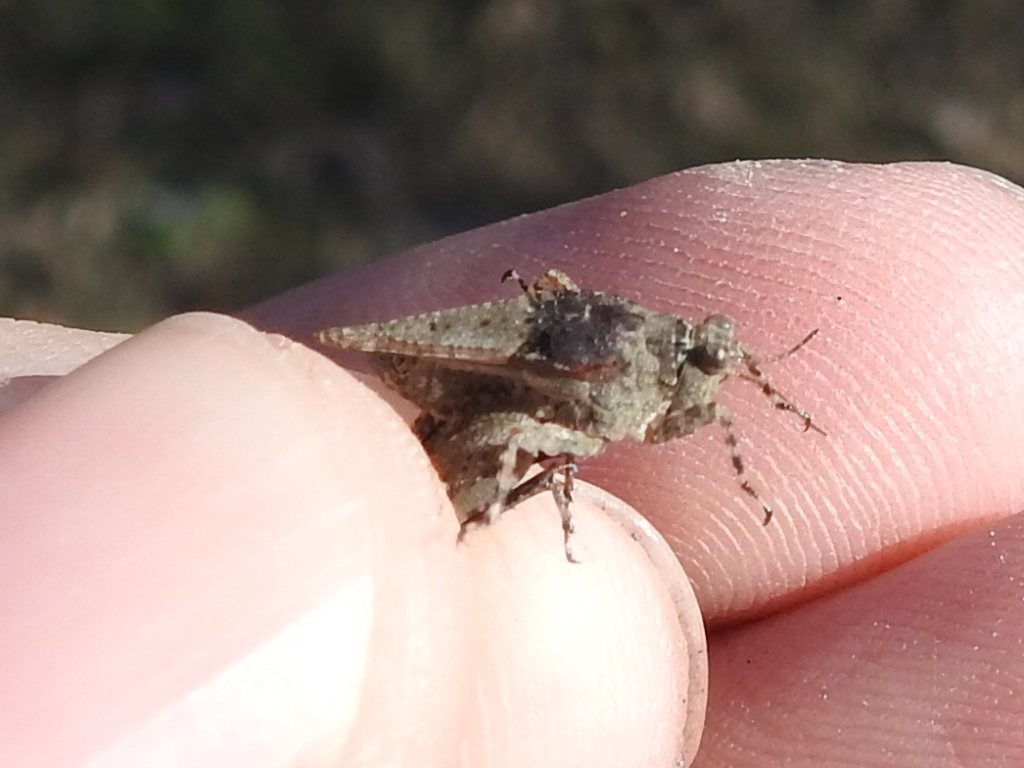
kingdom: Animalia
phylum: Arthropoda
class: Insecta
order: Orthoptera
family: Tetrigidae
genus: Paratettix
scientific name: Paratettix mexicanus
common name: Mexican pygmy grasshopper
